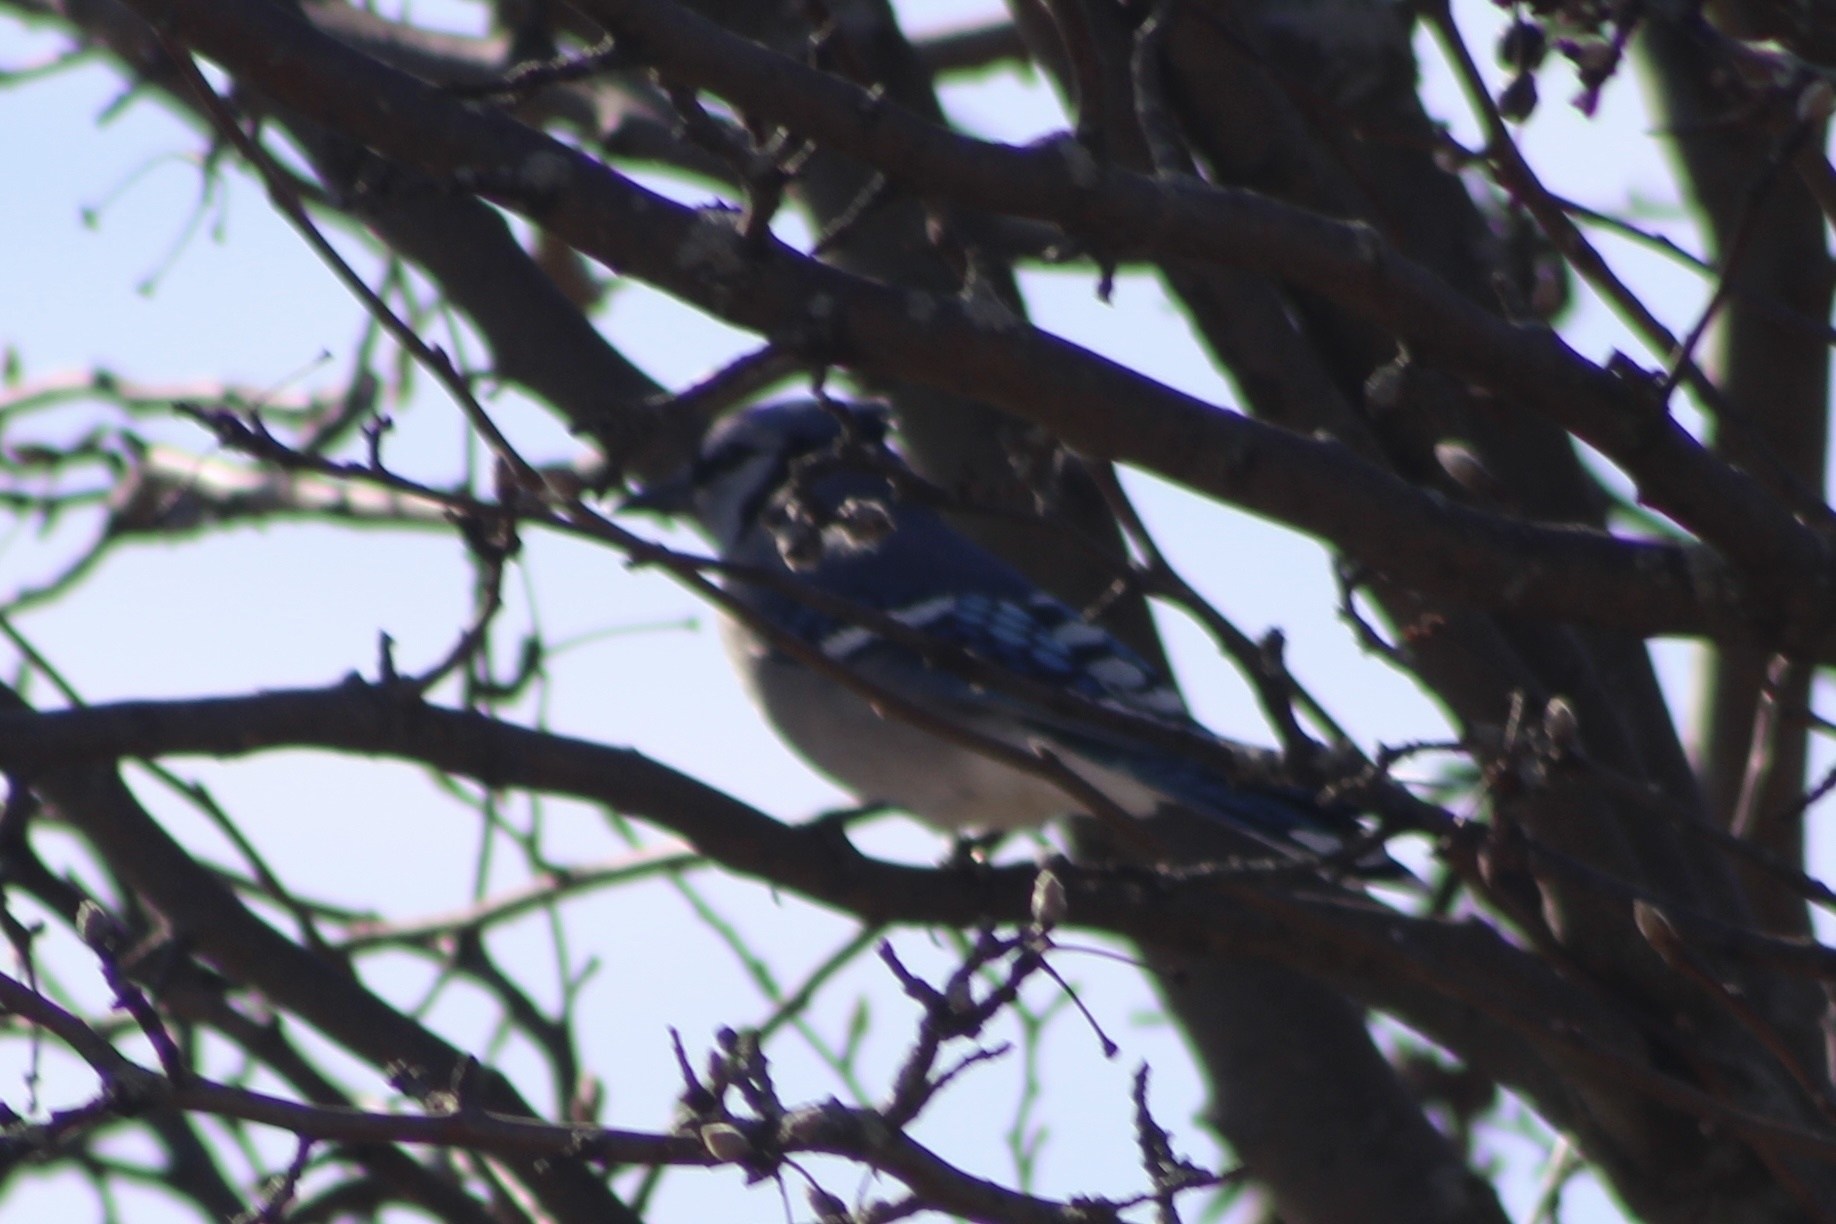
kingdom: Animalia
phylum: Chordata
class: Aves
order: Passeriformes
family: Corvidae
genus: Cyanocitta
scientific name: Cyanocitta cristata
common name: Blue jay
